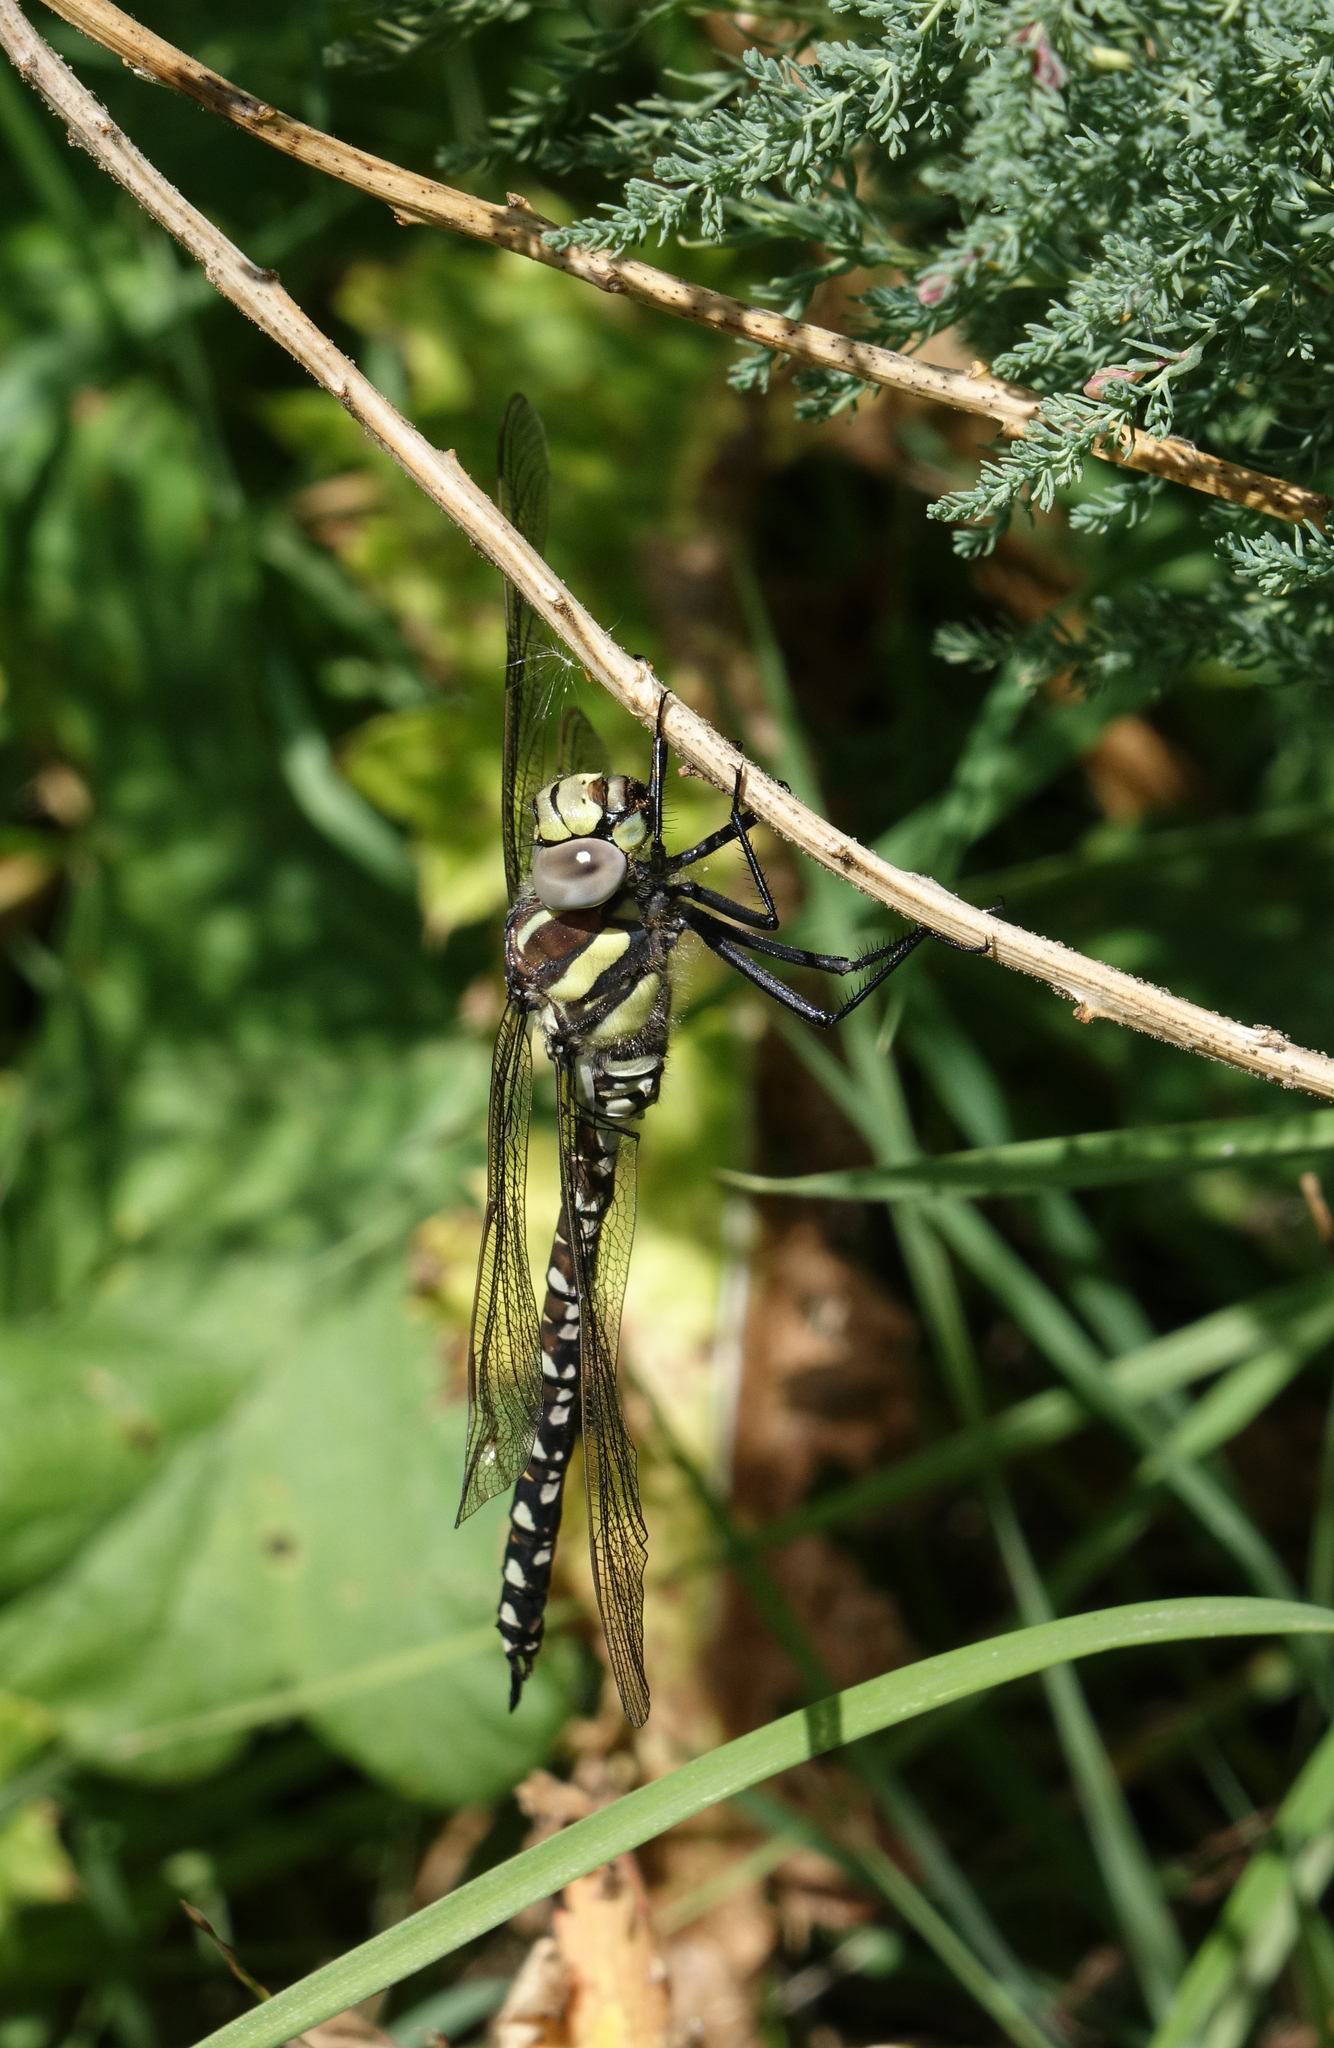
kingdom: Animalia
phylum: Arthropoda
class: Insecta
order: Odonata
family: Aeshnidae
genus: Aeshna
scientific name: Aeshna juncea
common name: Moorland hawker
